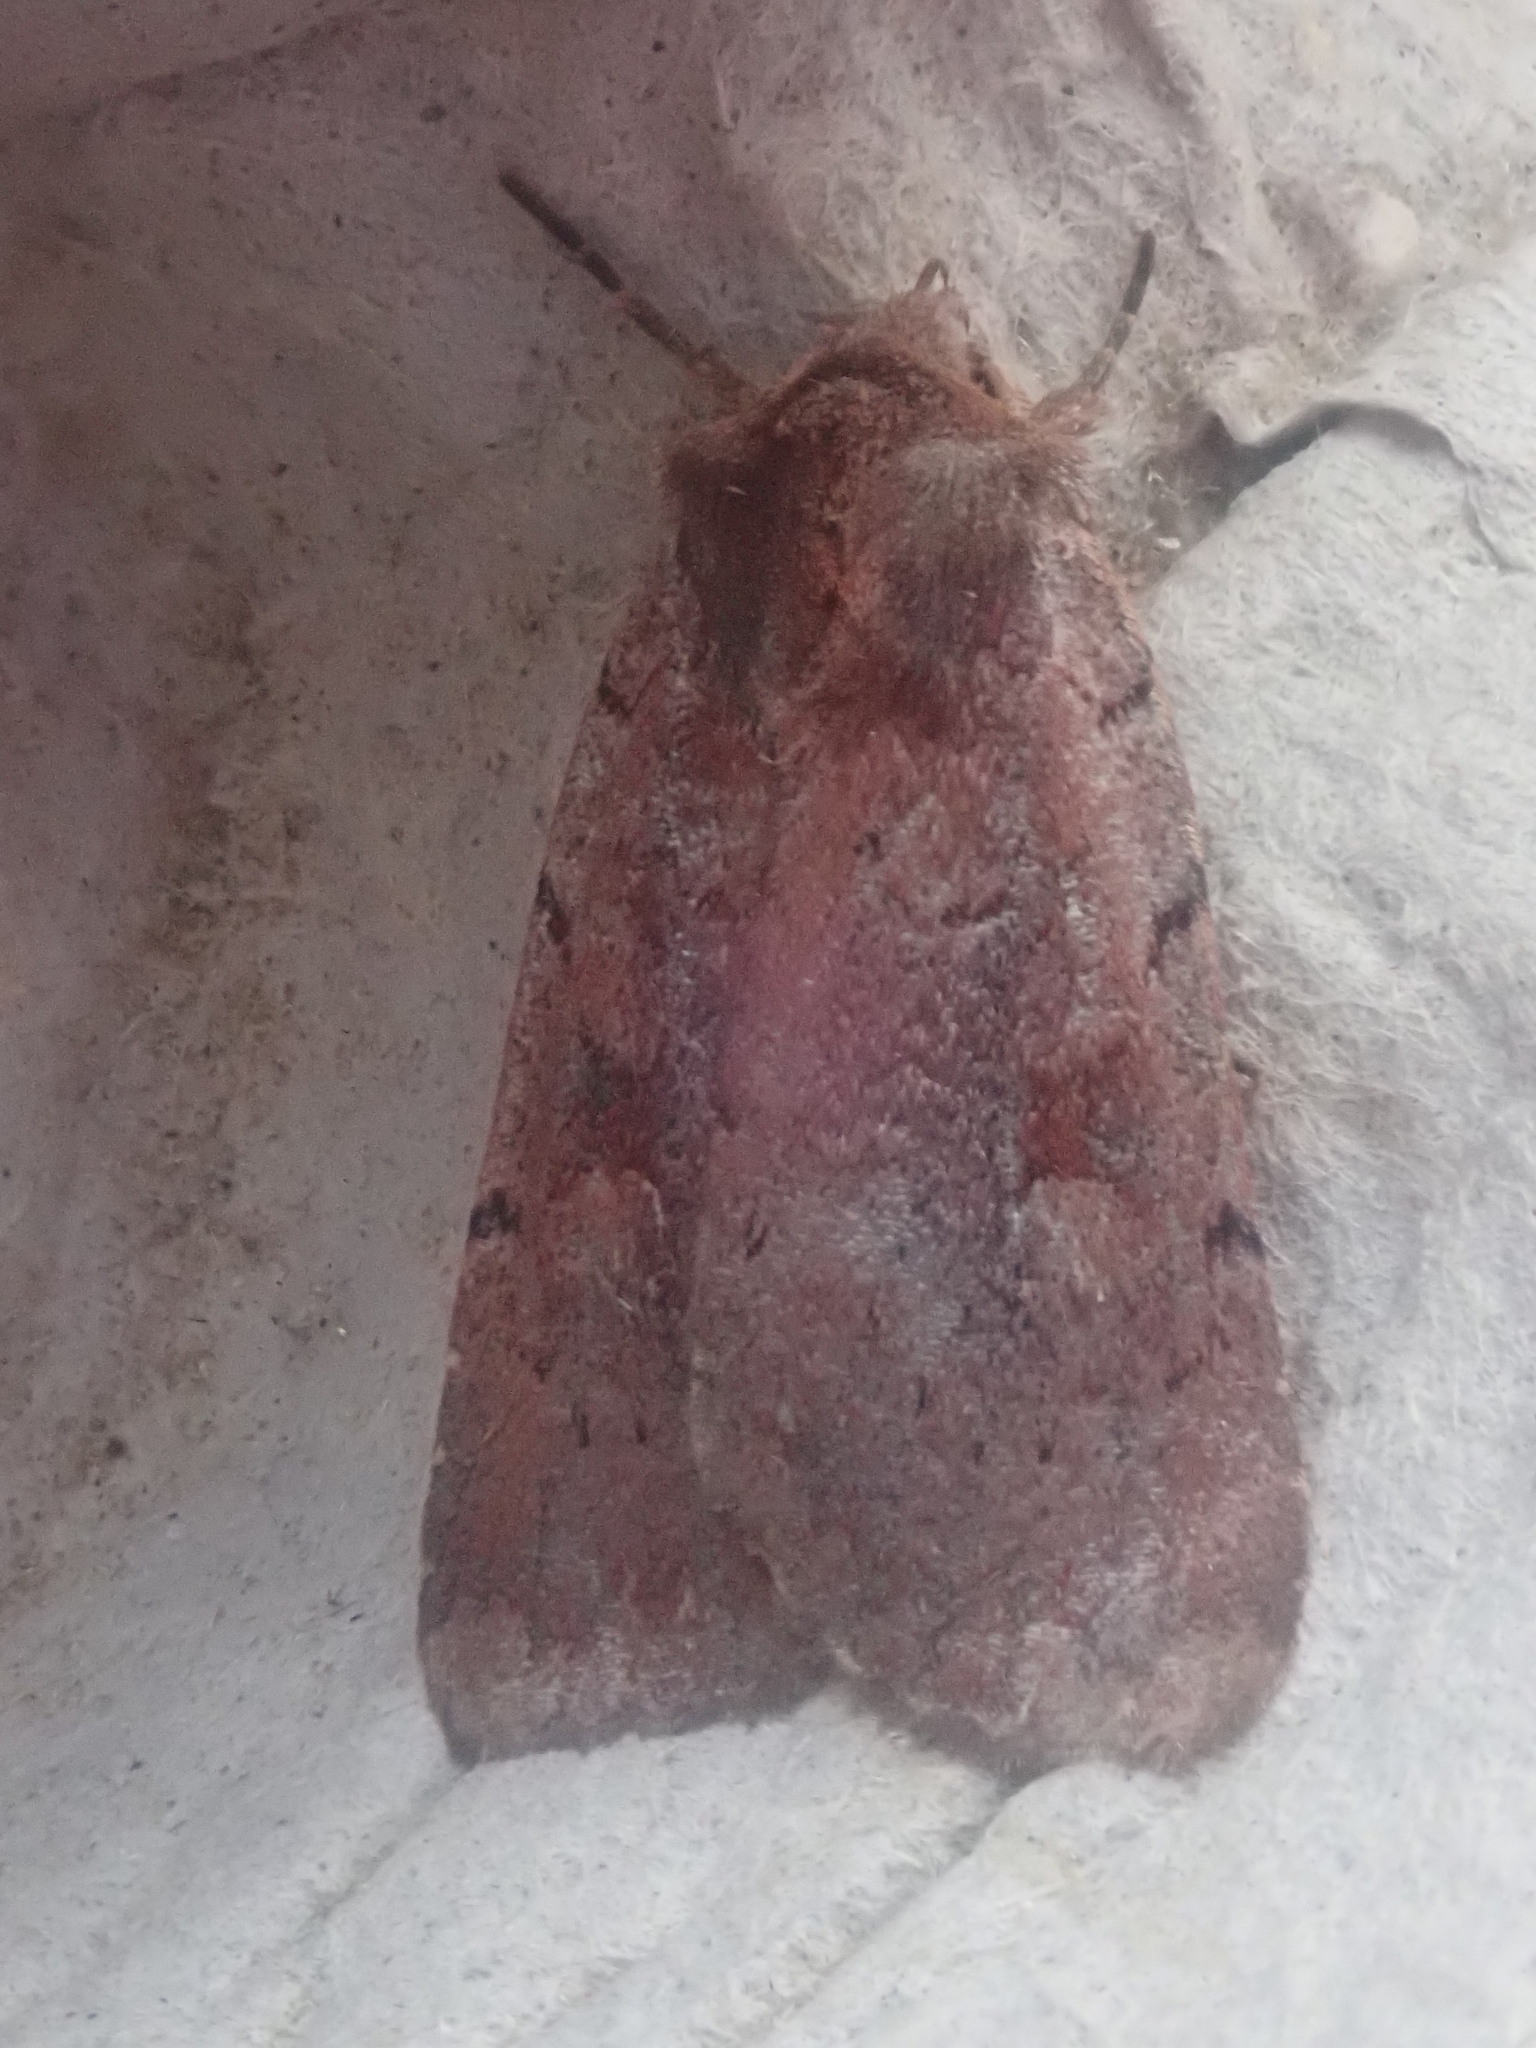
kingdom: Animalia
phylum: Arthropoda
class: Insecta
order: Lepidoptera
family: Noctuidae
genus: Xestia
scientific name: Xestia dilucida
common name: Dull reddish dart
